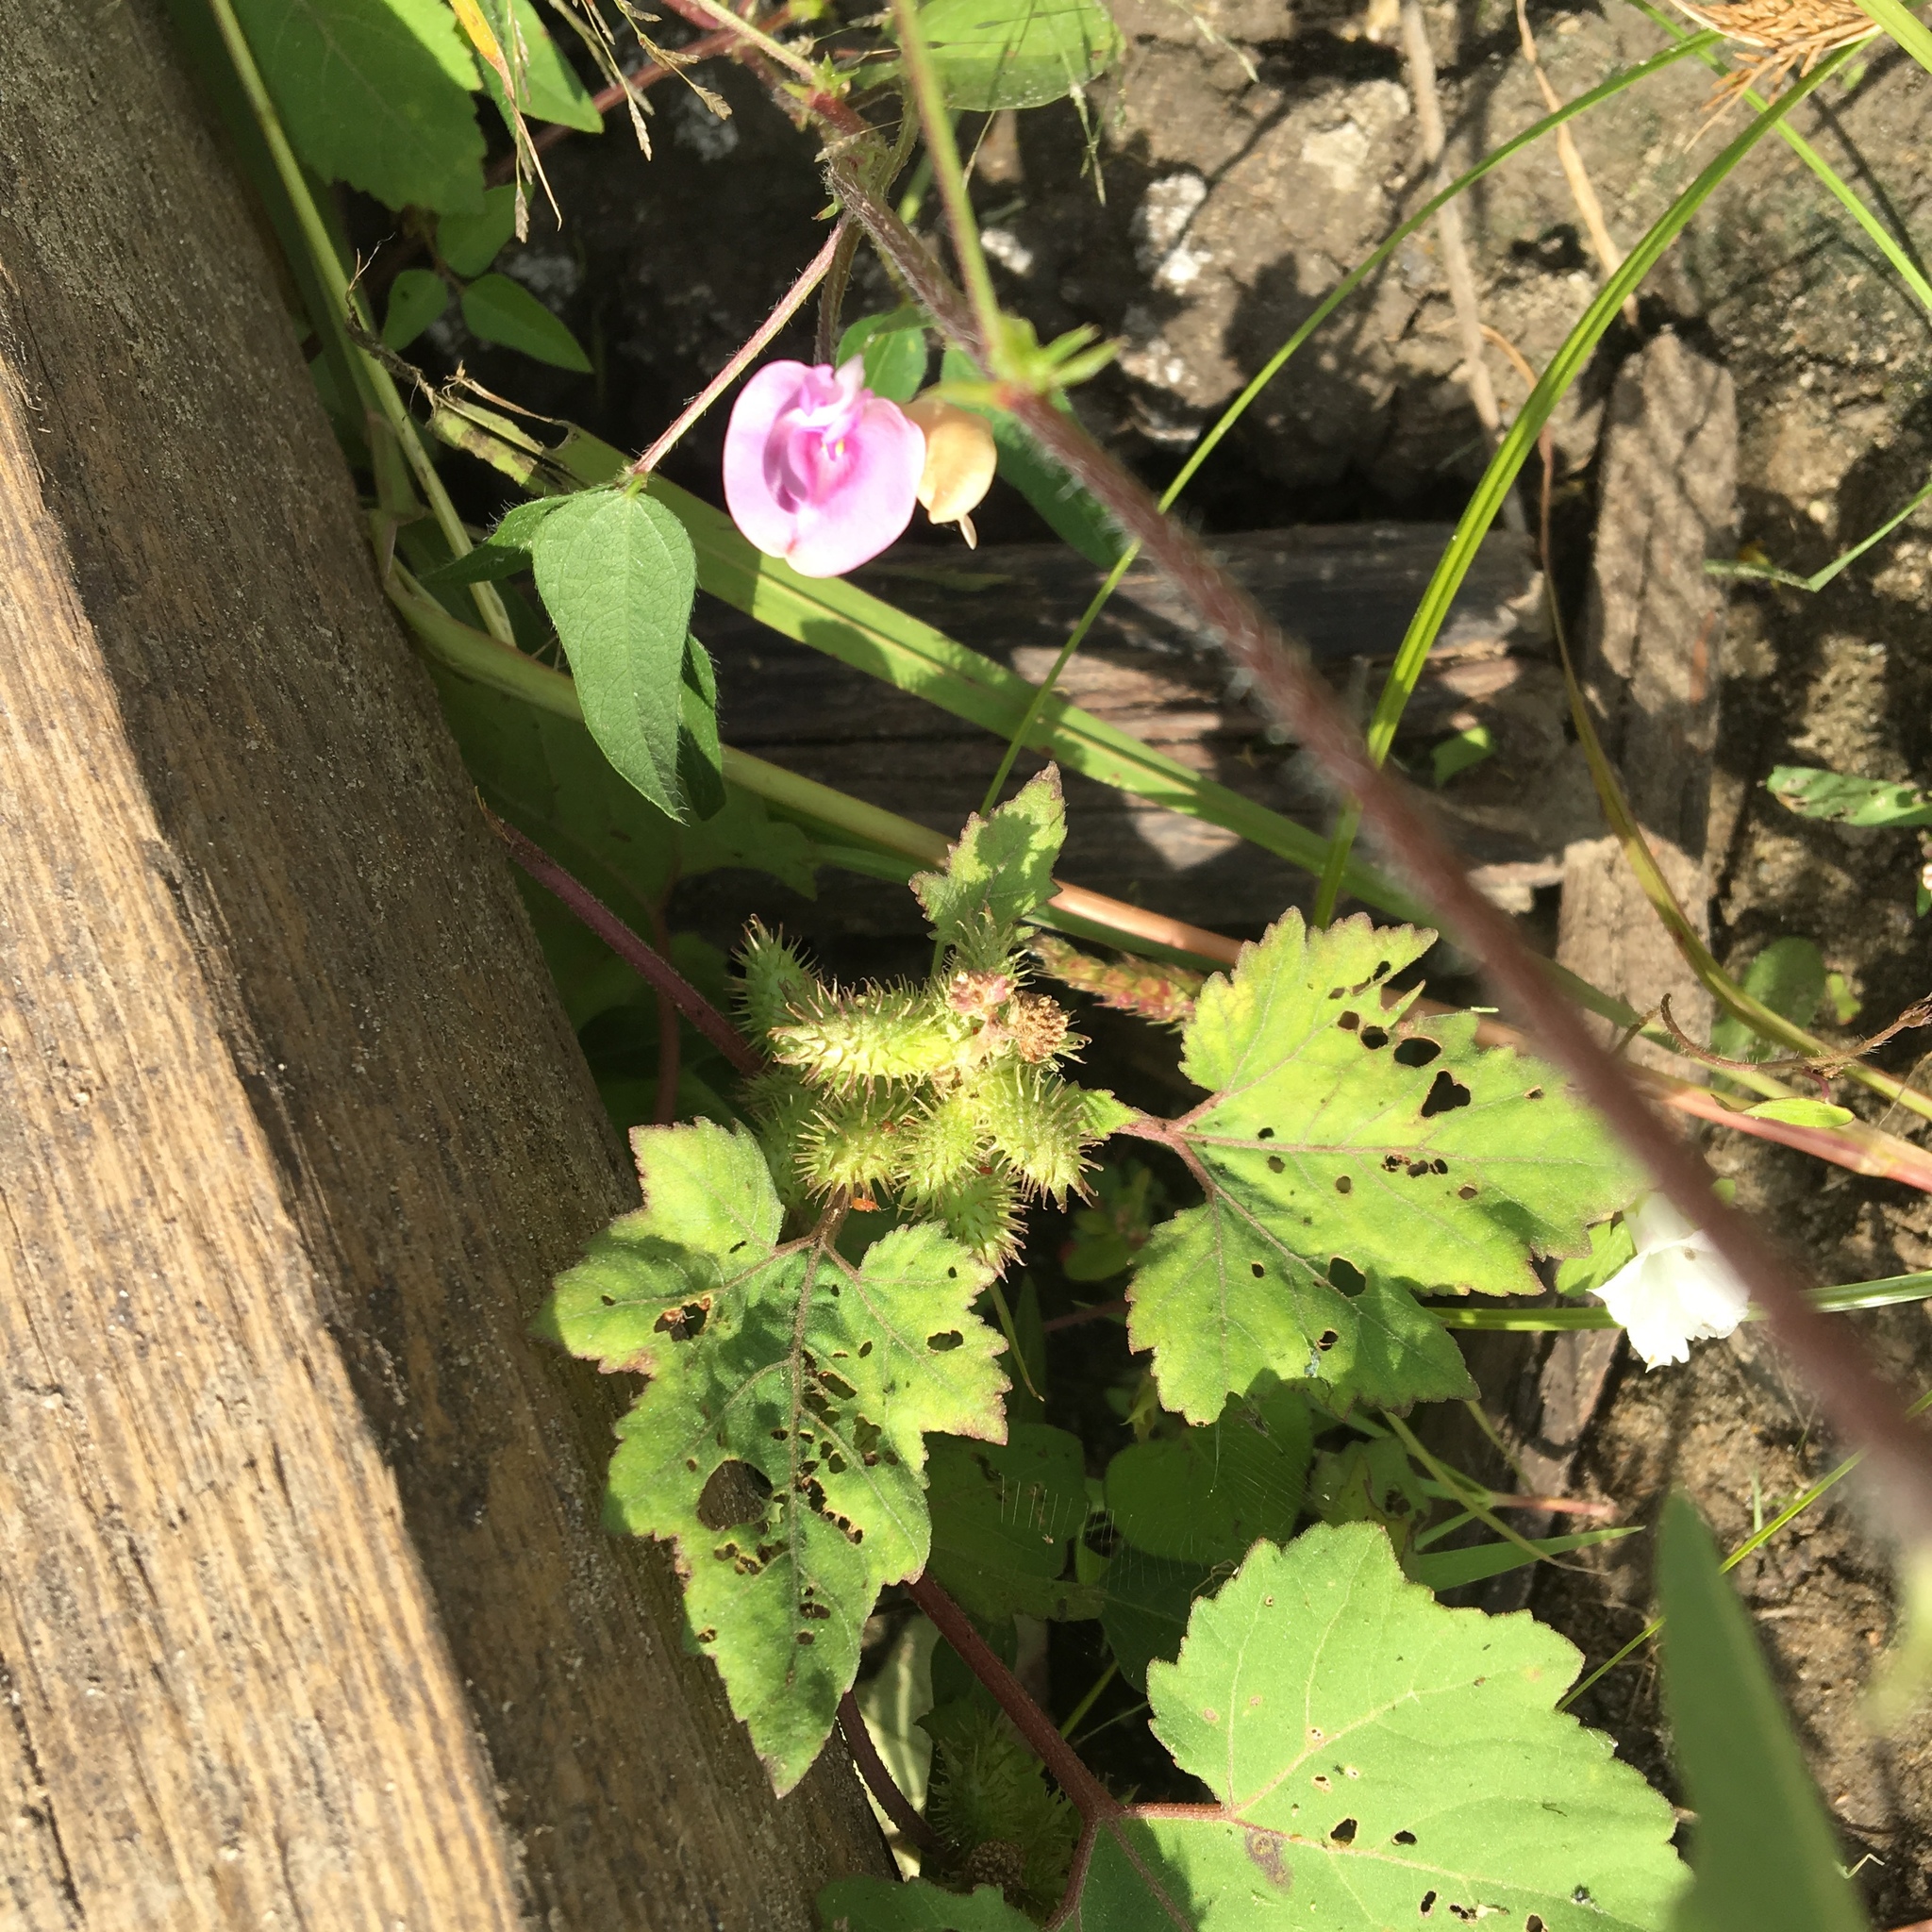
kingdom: Plantae
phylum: Tracheophyta
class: Magnoliopsida
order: Fabales
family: Fabaceae
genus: Strophostyles
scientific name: Strophostyles helvola
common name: Trailing wild bean
